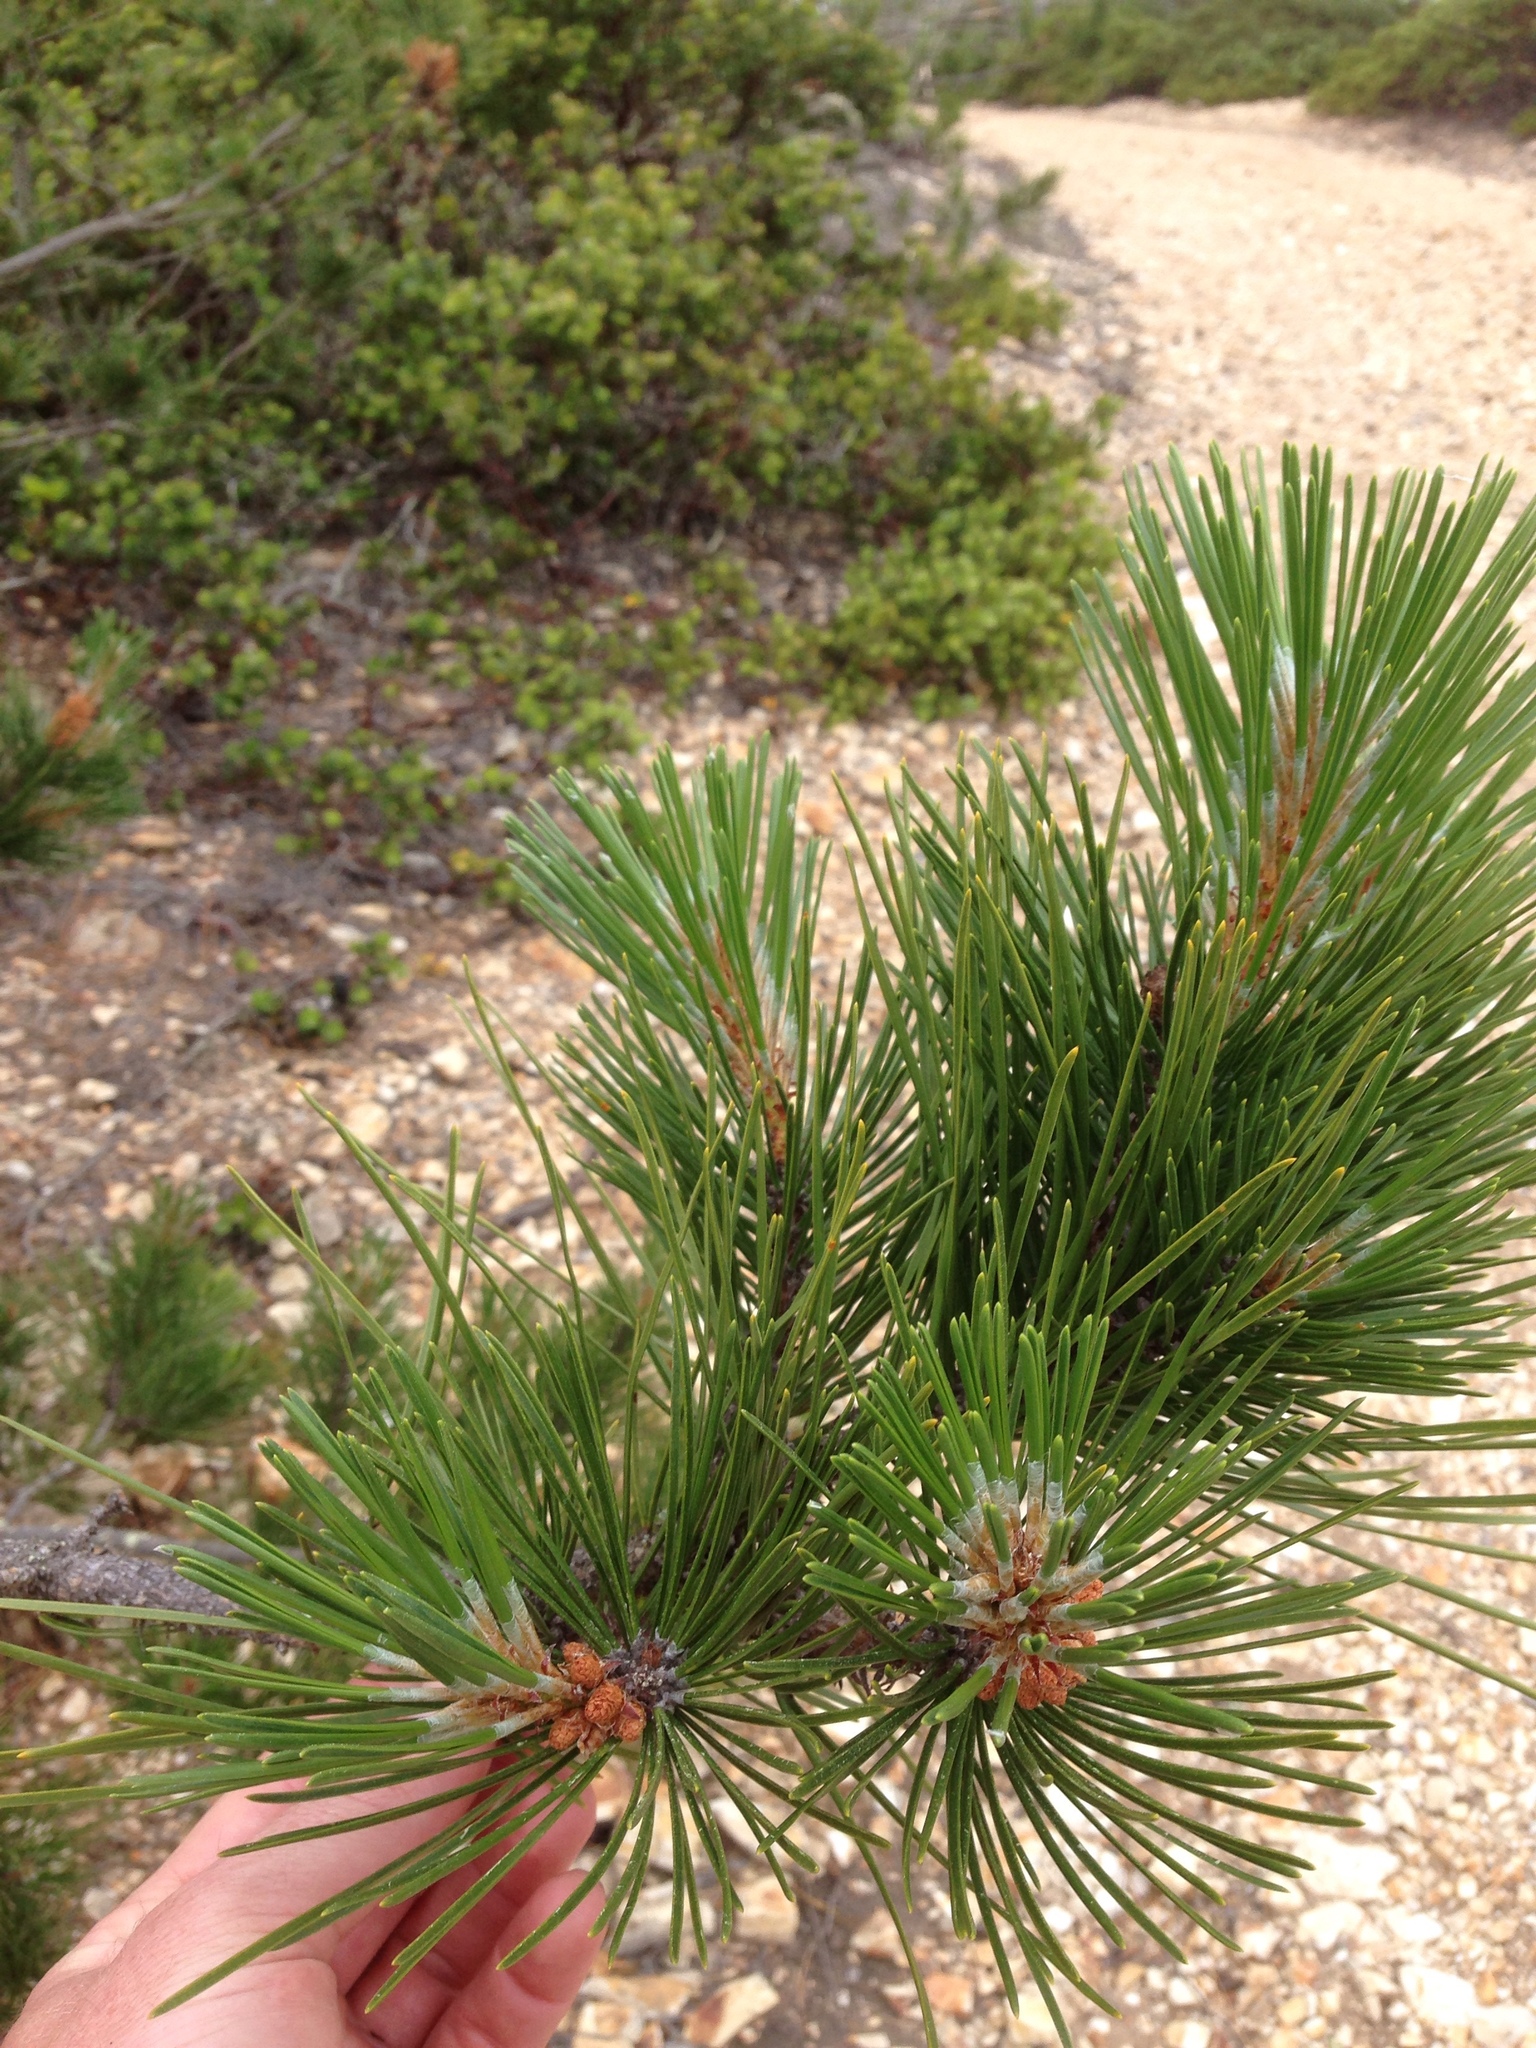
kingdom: Plantae
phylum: Tracheophyta
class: Pinopsida
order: Pinales
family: Pinaceae
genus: Pinus
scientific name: Pinus muricata
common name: Bishop pine
